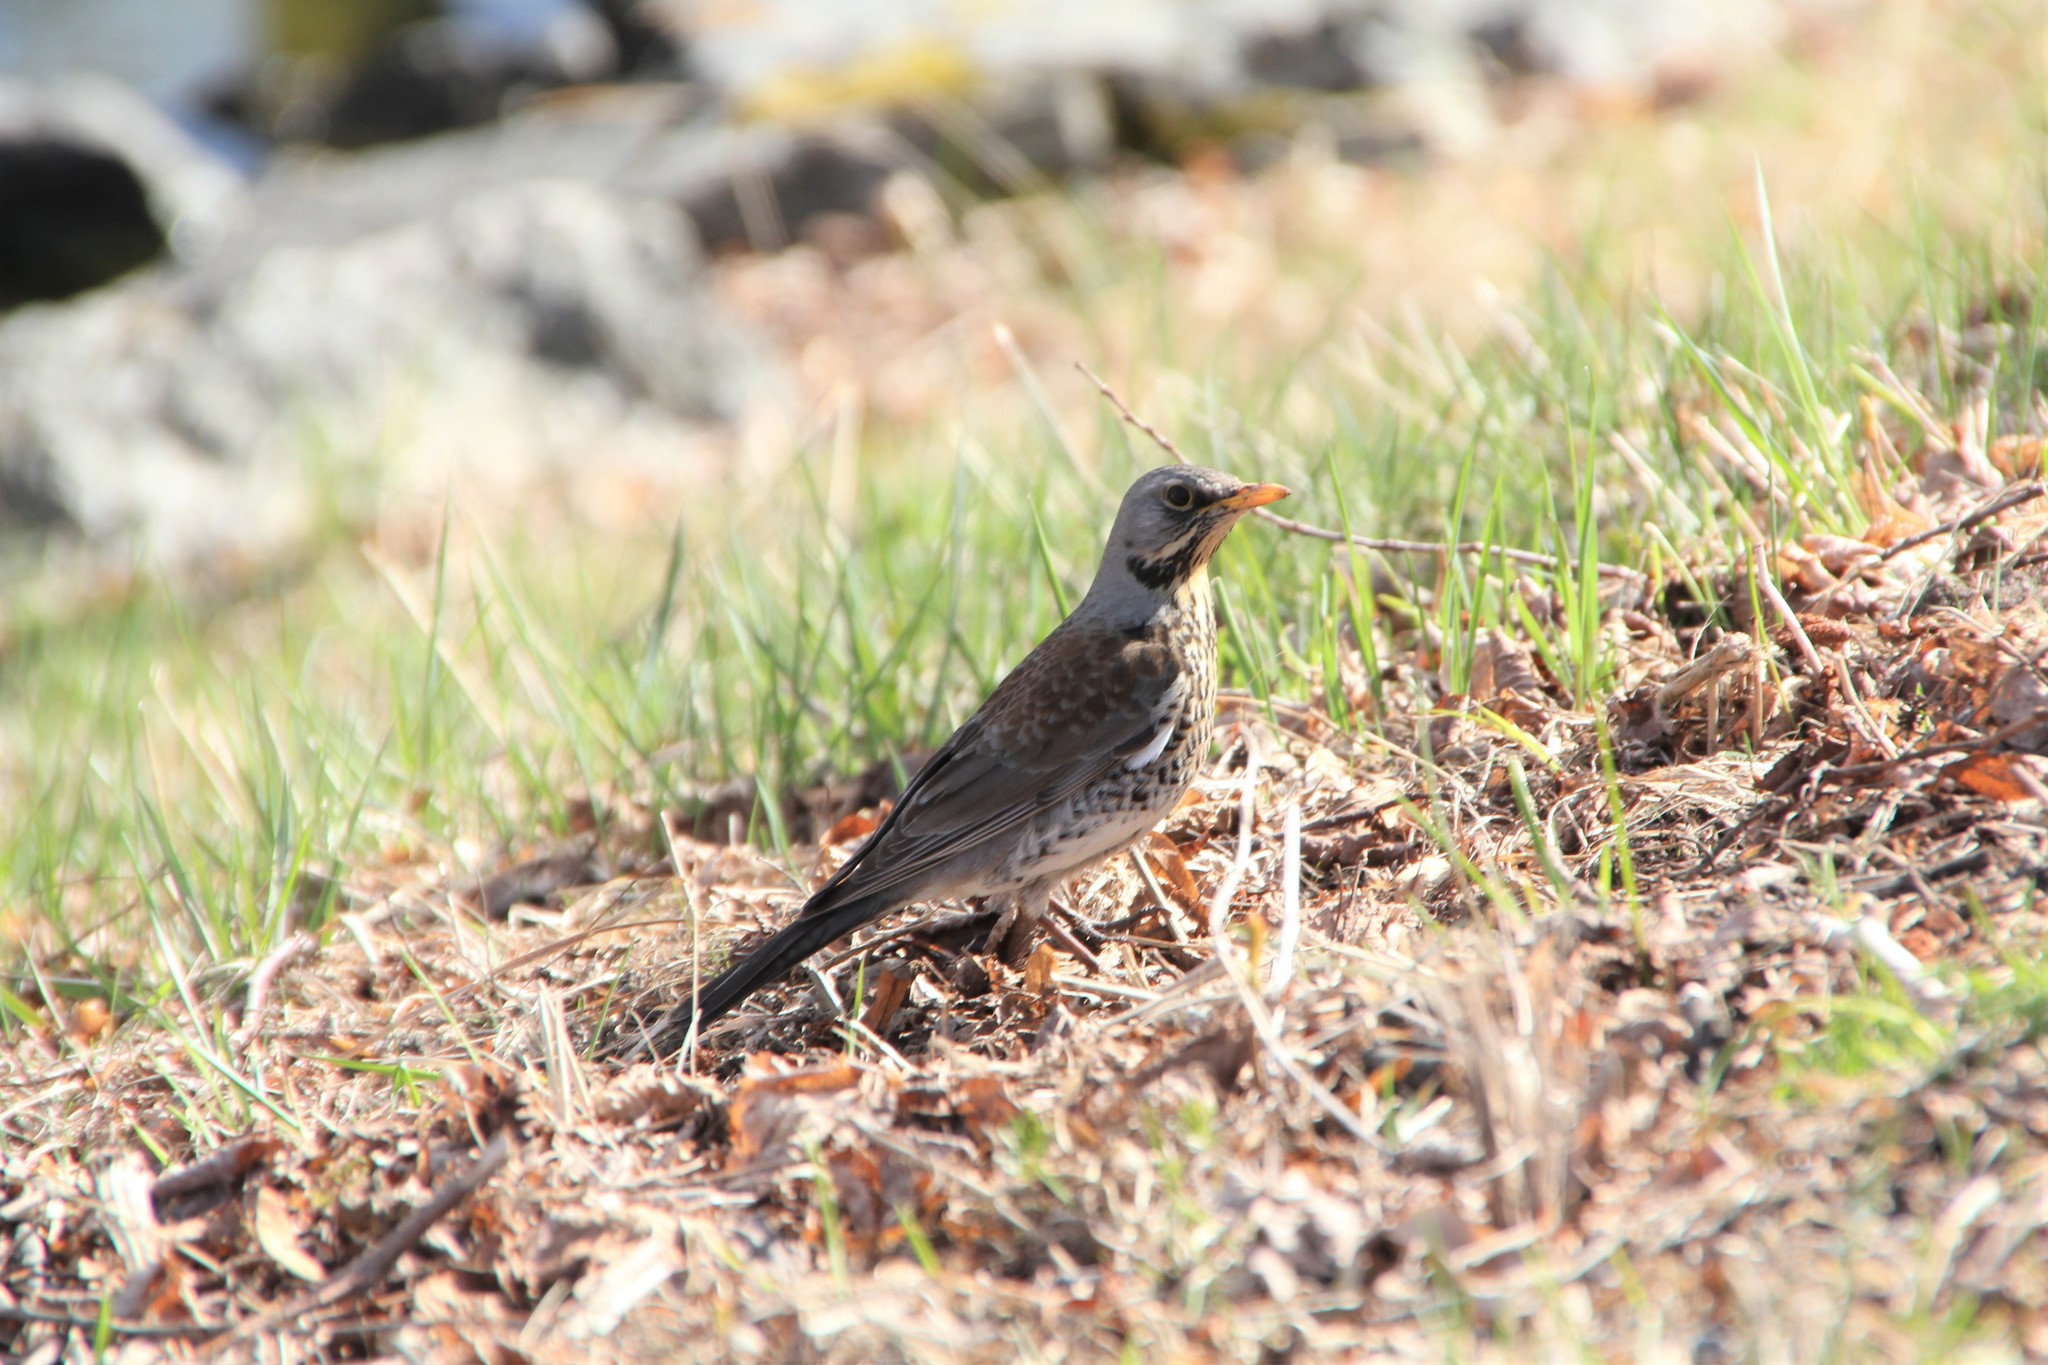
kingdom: Animalia
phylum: Chordata
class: Aves
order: Passeriformes
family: Turdidae
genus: Turdus
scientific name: Turdus pilaris
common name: Fieldfare
